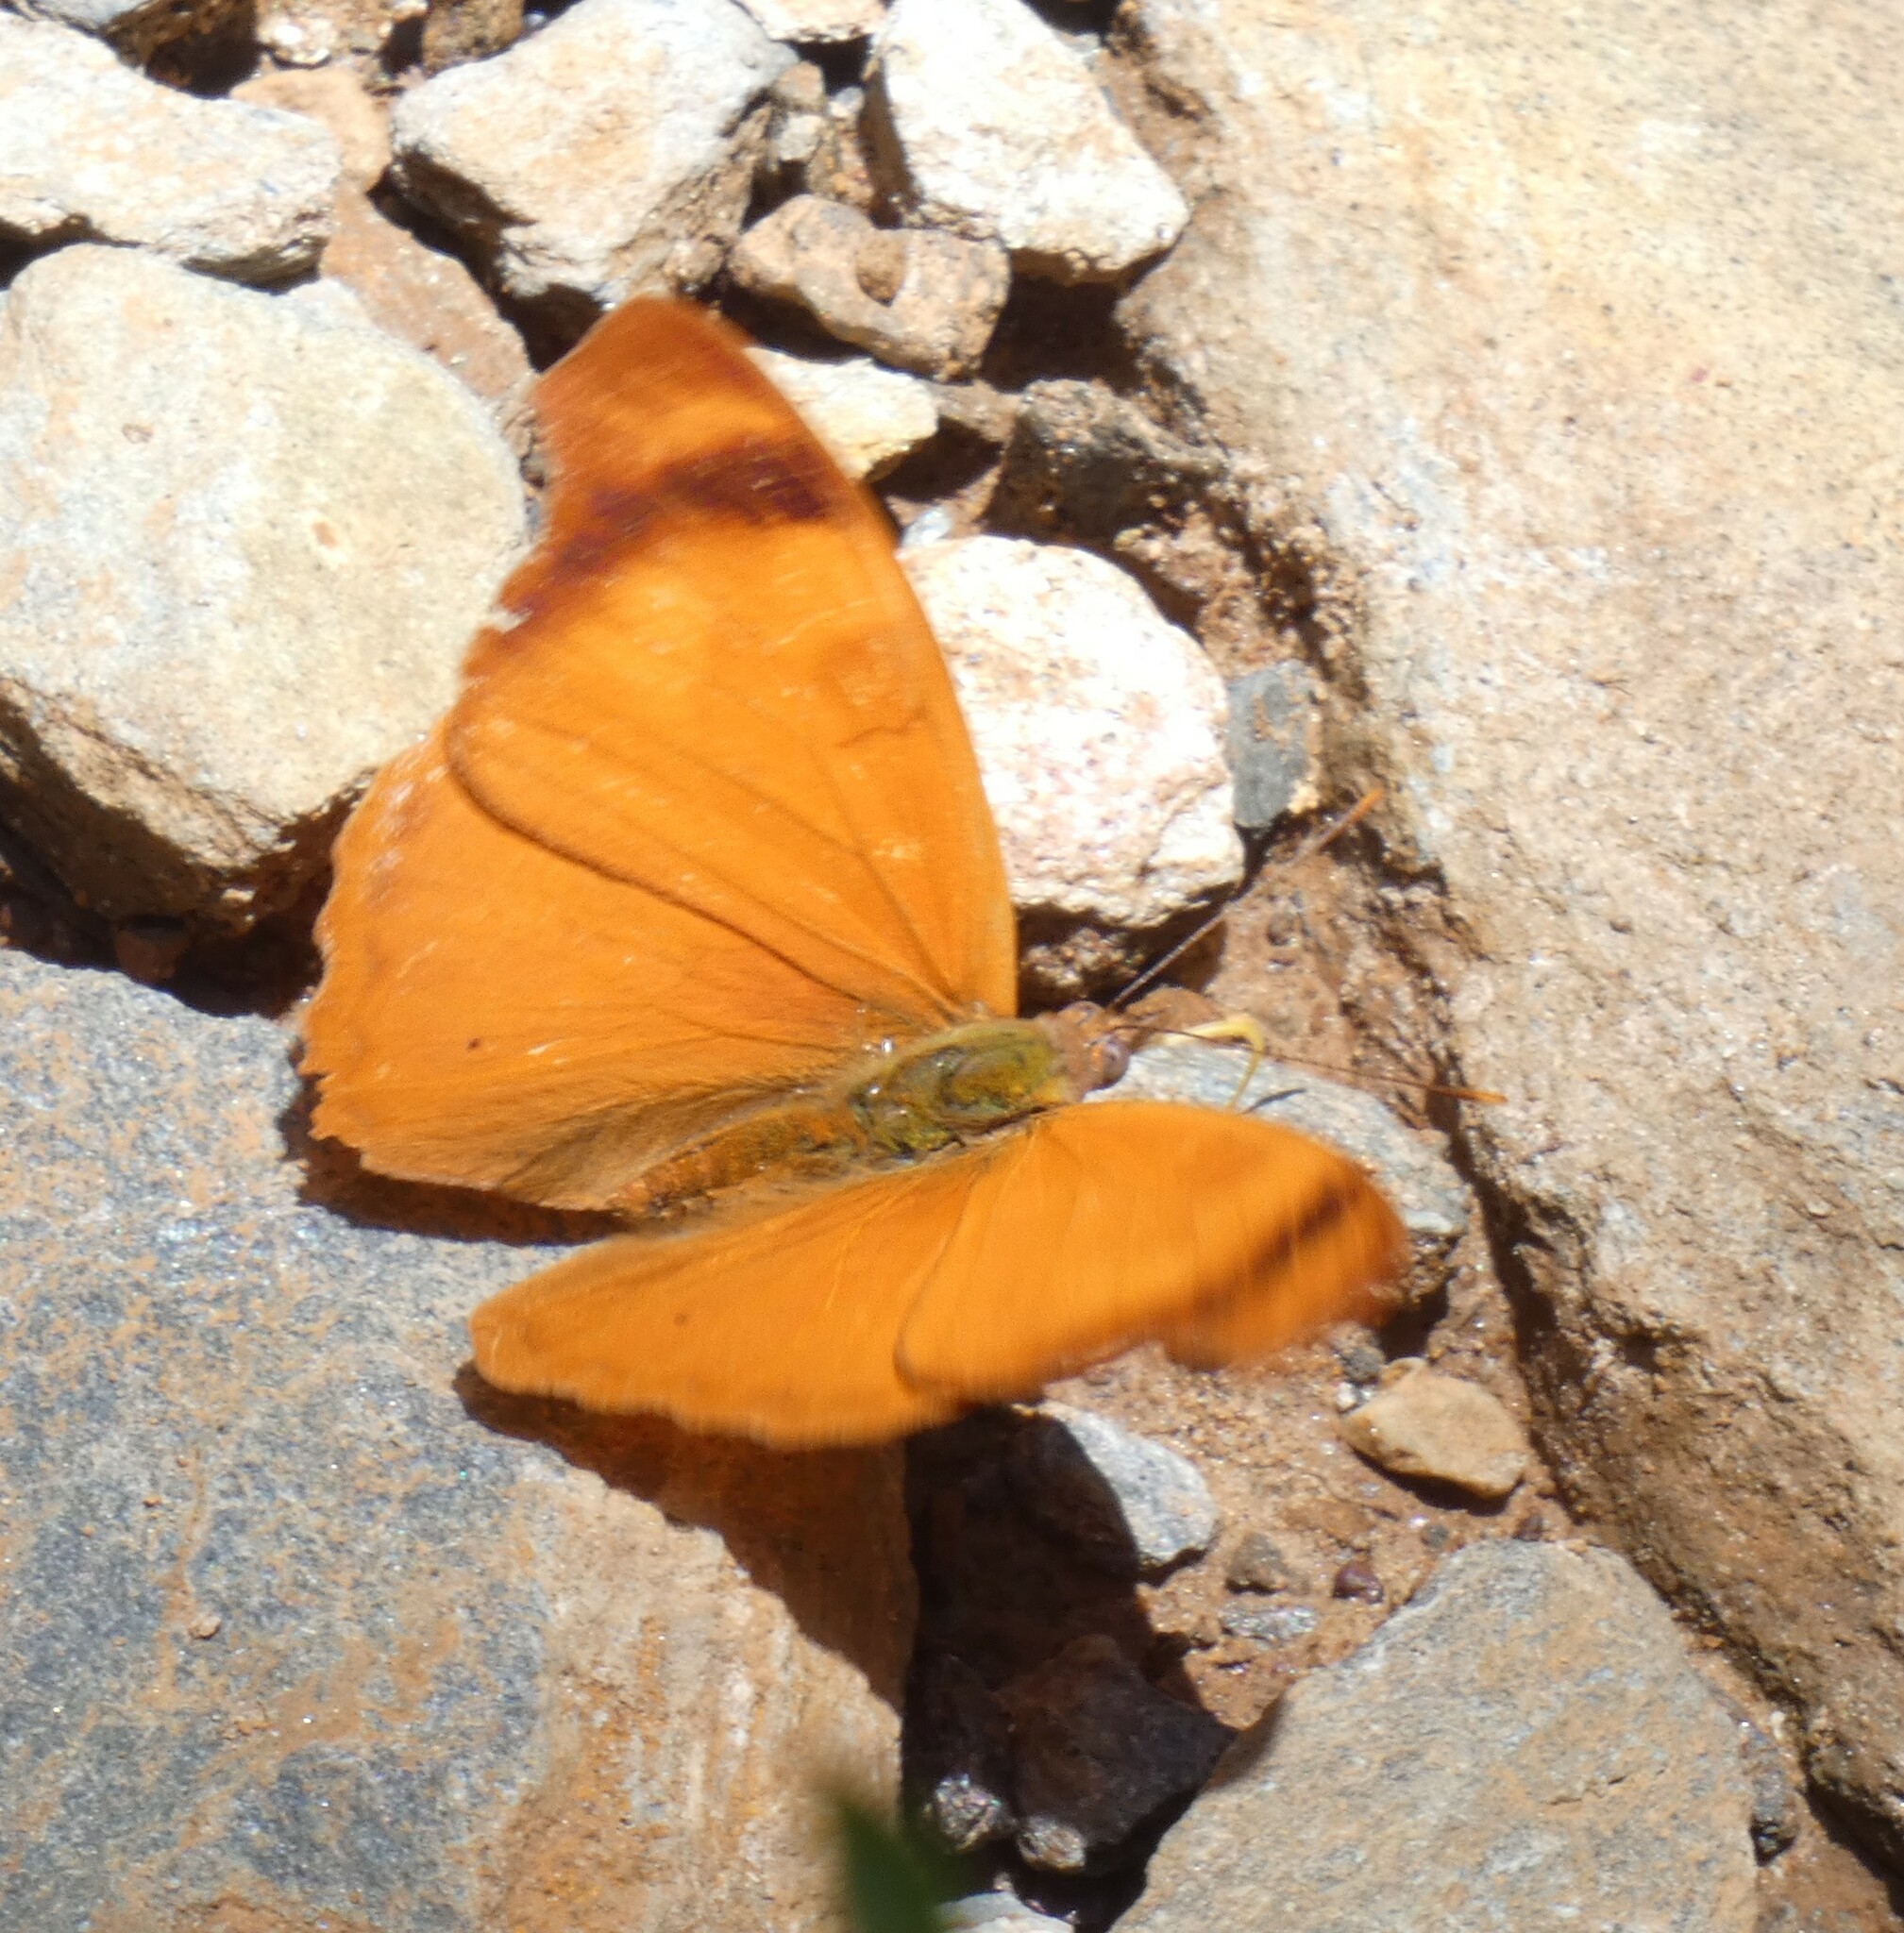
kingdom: Animalia
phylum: Arthropoda
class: Insecta
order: Lepidoptera
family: Nymphalidae
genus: Temenis
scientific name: Temenis laothoe
